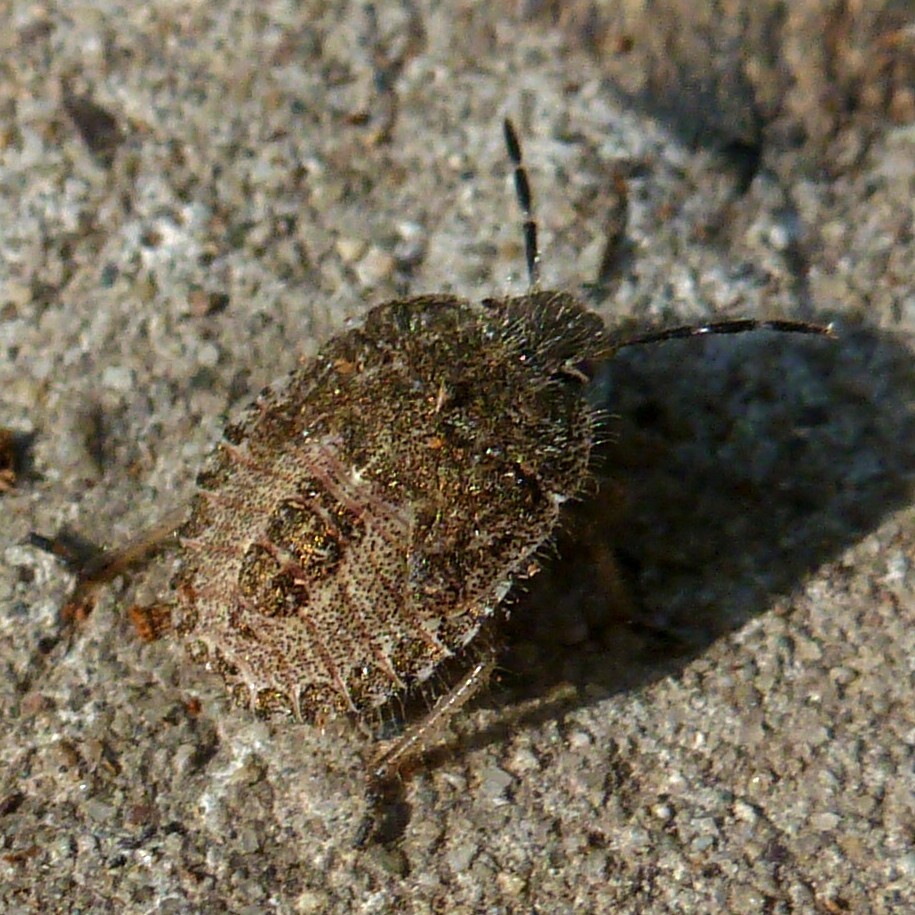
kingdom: Animalia
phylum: Arthropoda
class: Insecta
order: Hemiptera
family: Pentatomidae
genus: Dolycoris
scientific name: Dolycoris baccarum
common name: Sloe bug
